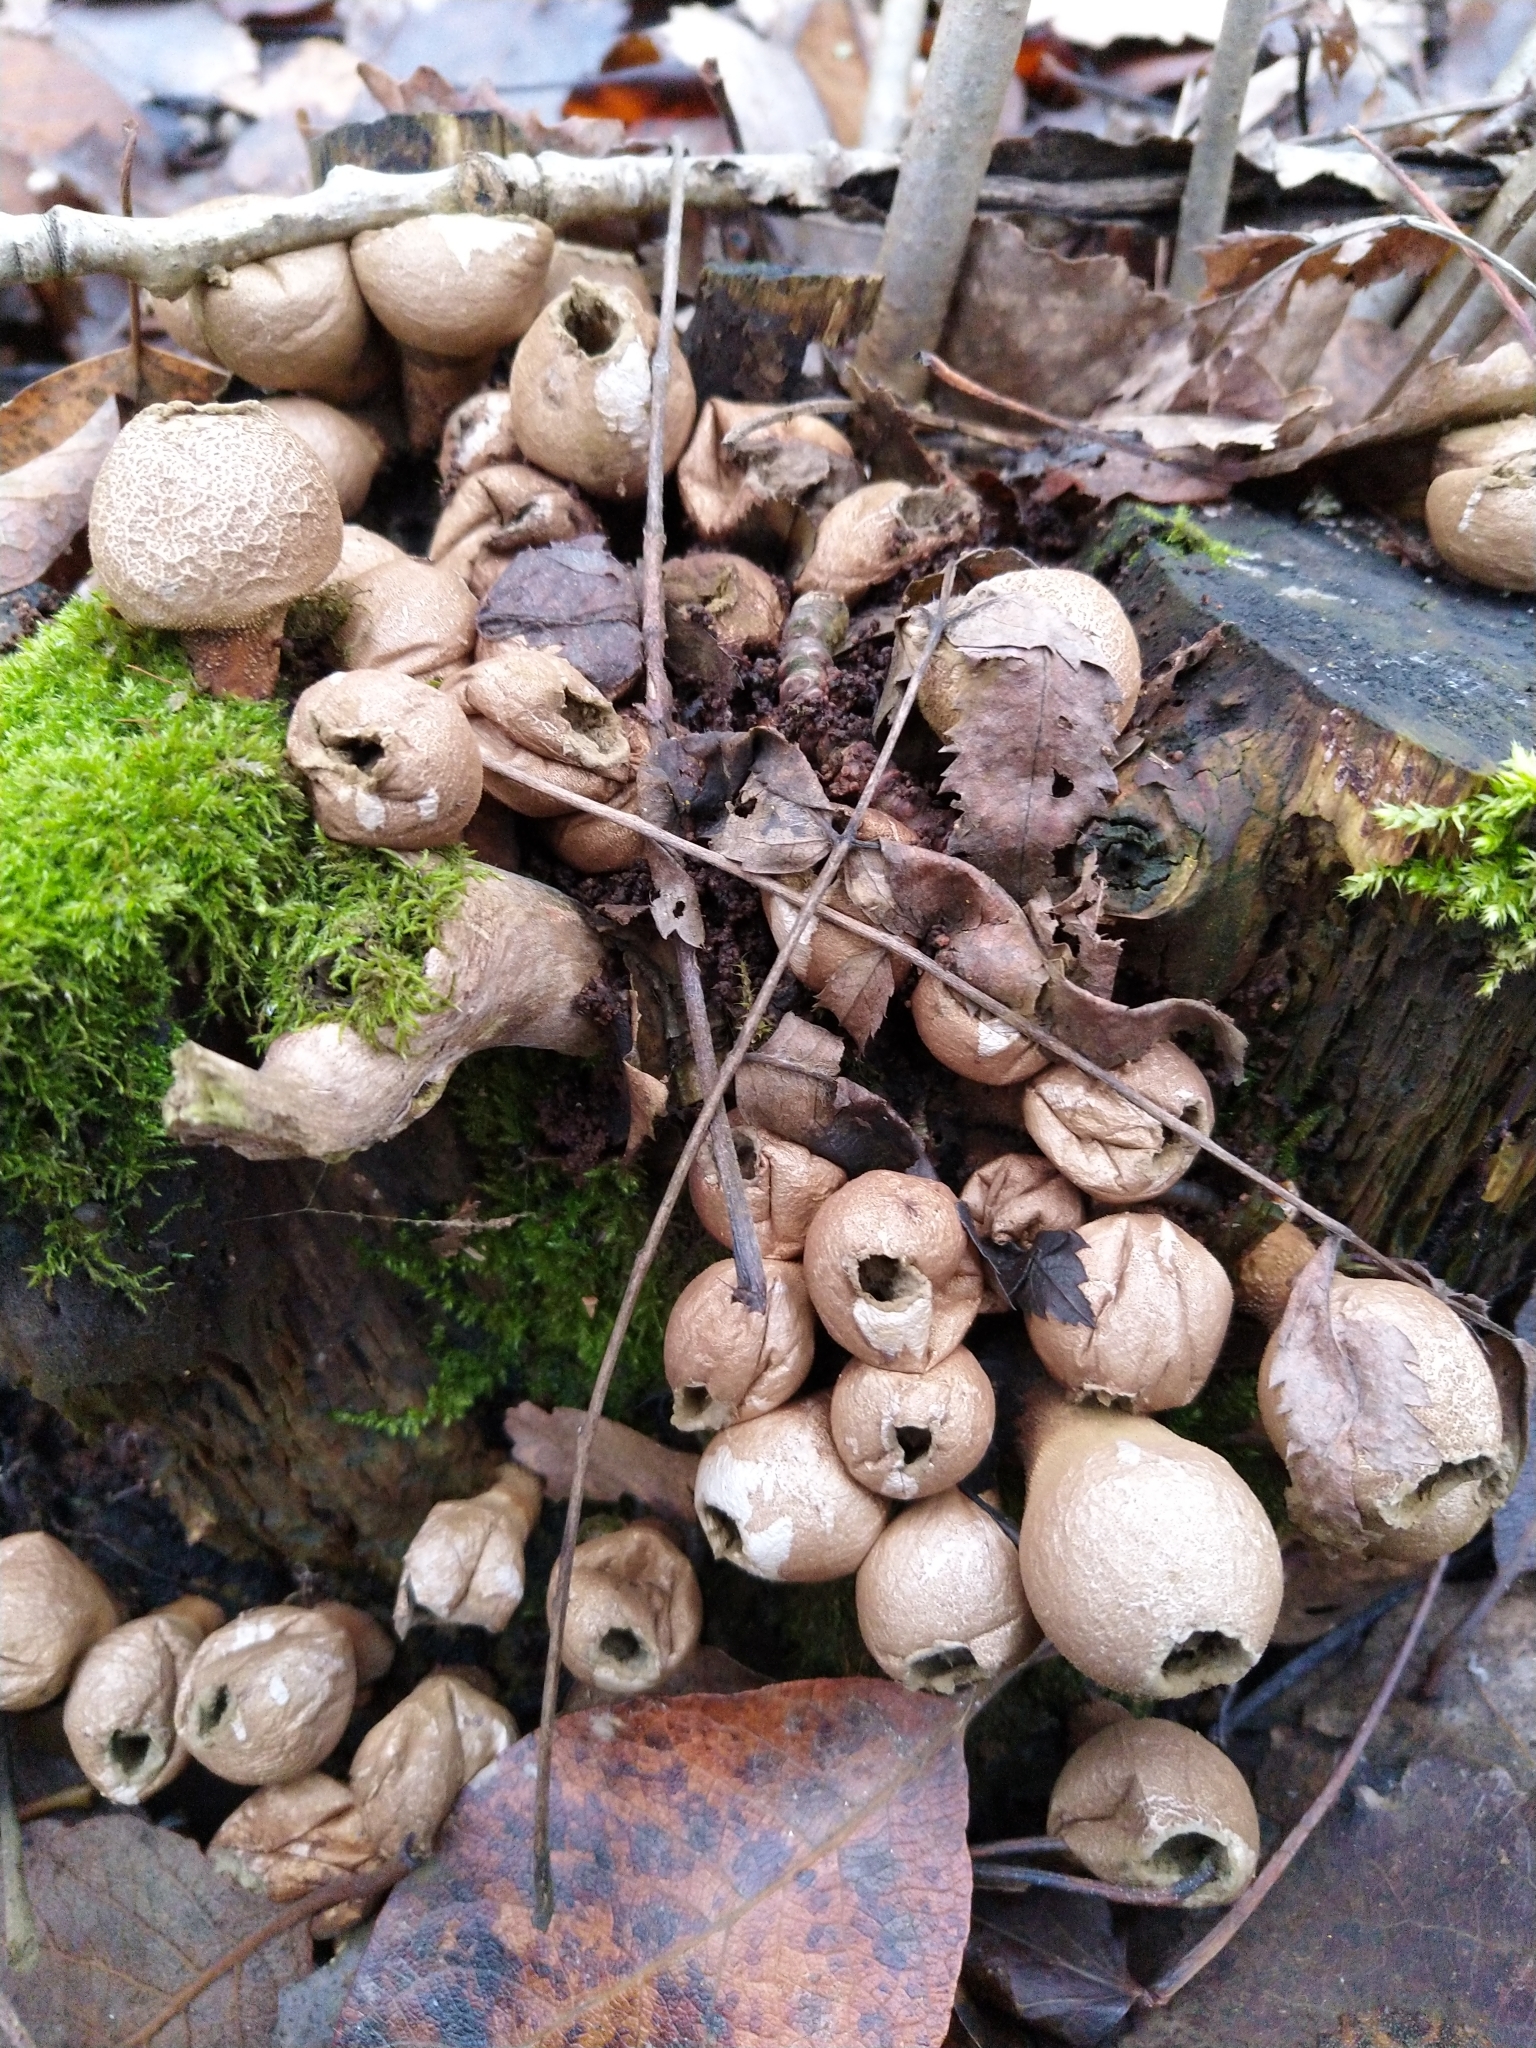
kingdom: Fungi
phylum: Basidiomycota
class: Agaricomycetes
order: Agaricales
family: Lycoperdaceae
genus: Apioperdon
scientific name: Apioperdon pyriforme
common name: Pear-shaped puffball
